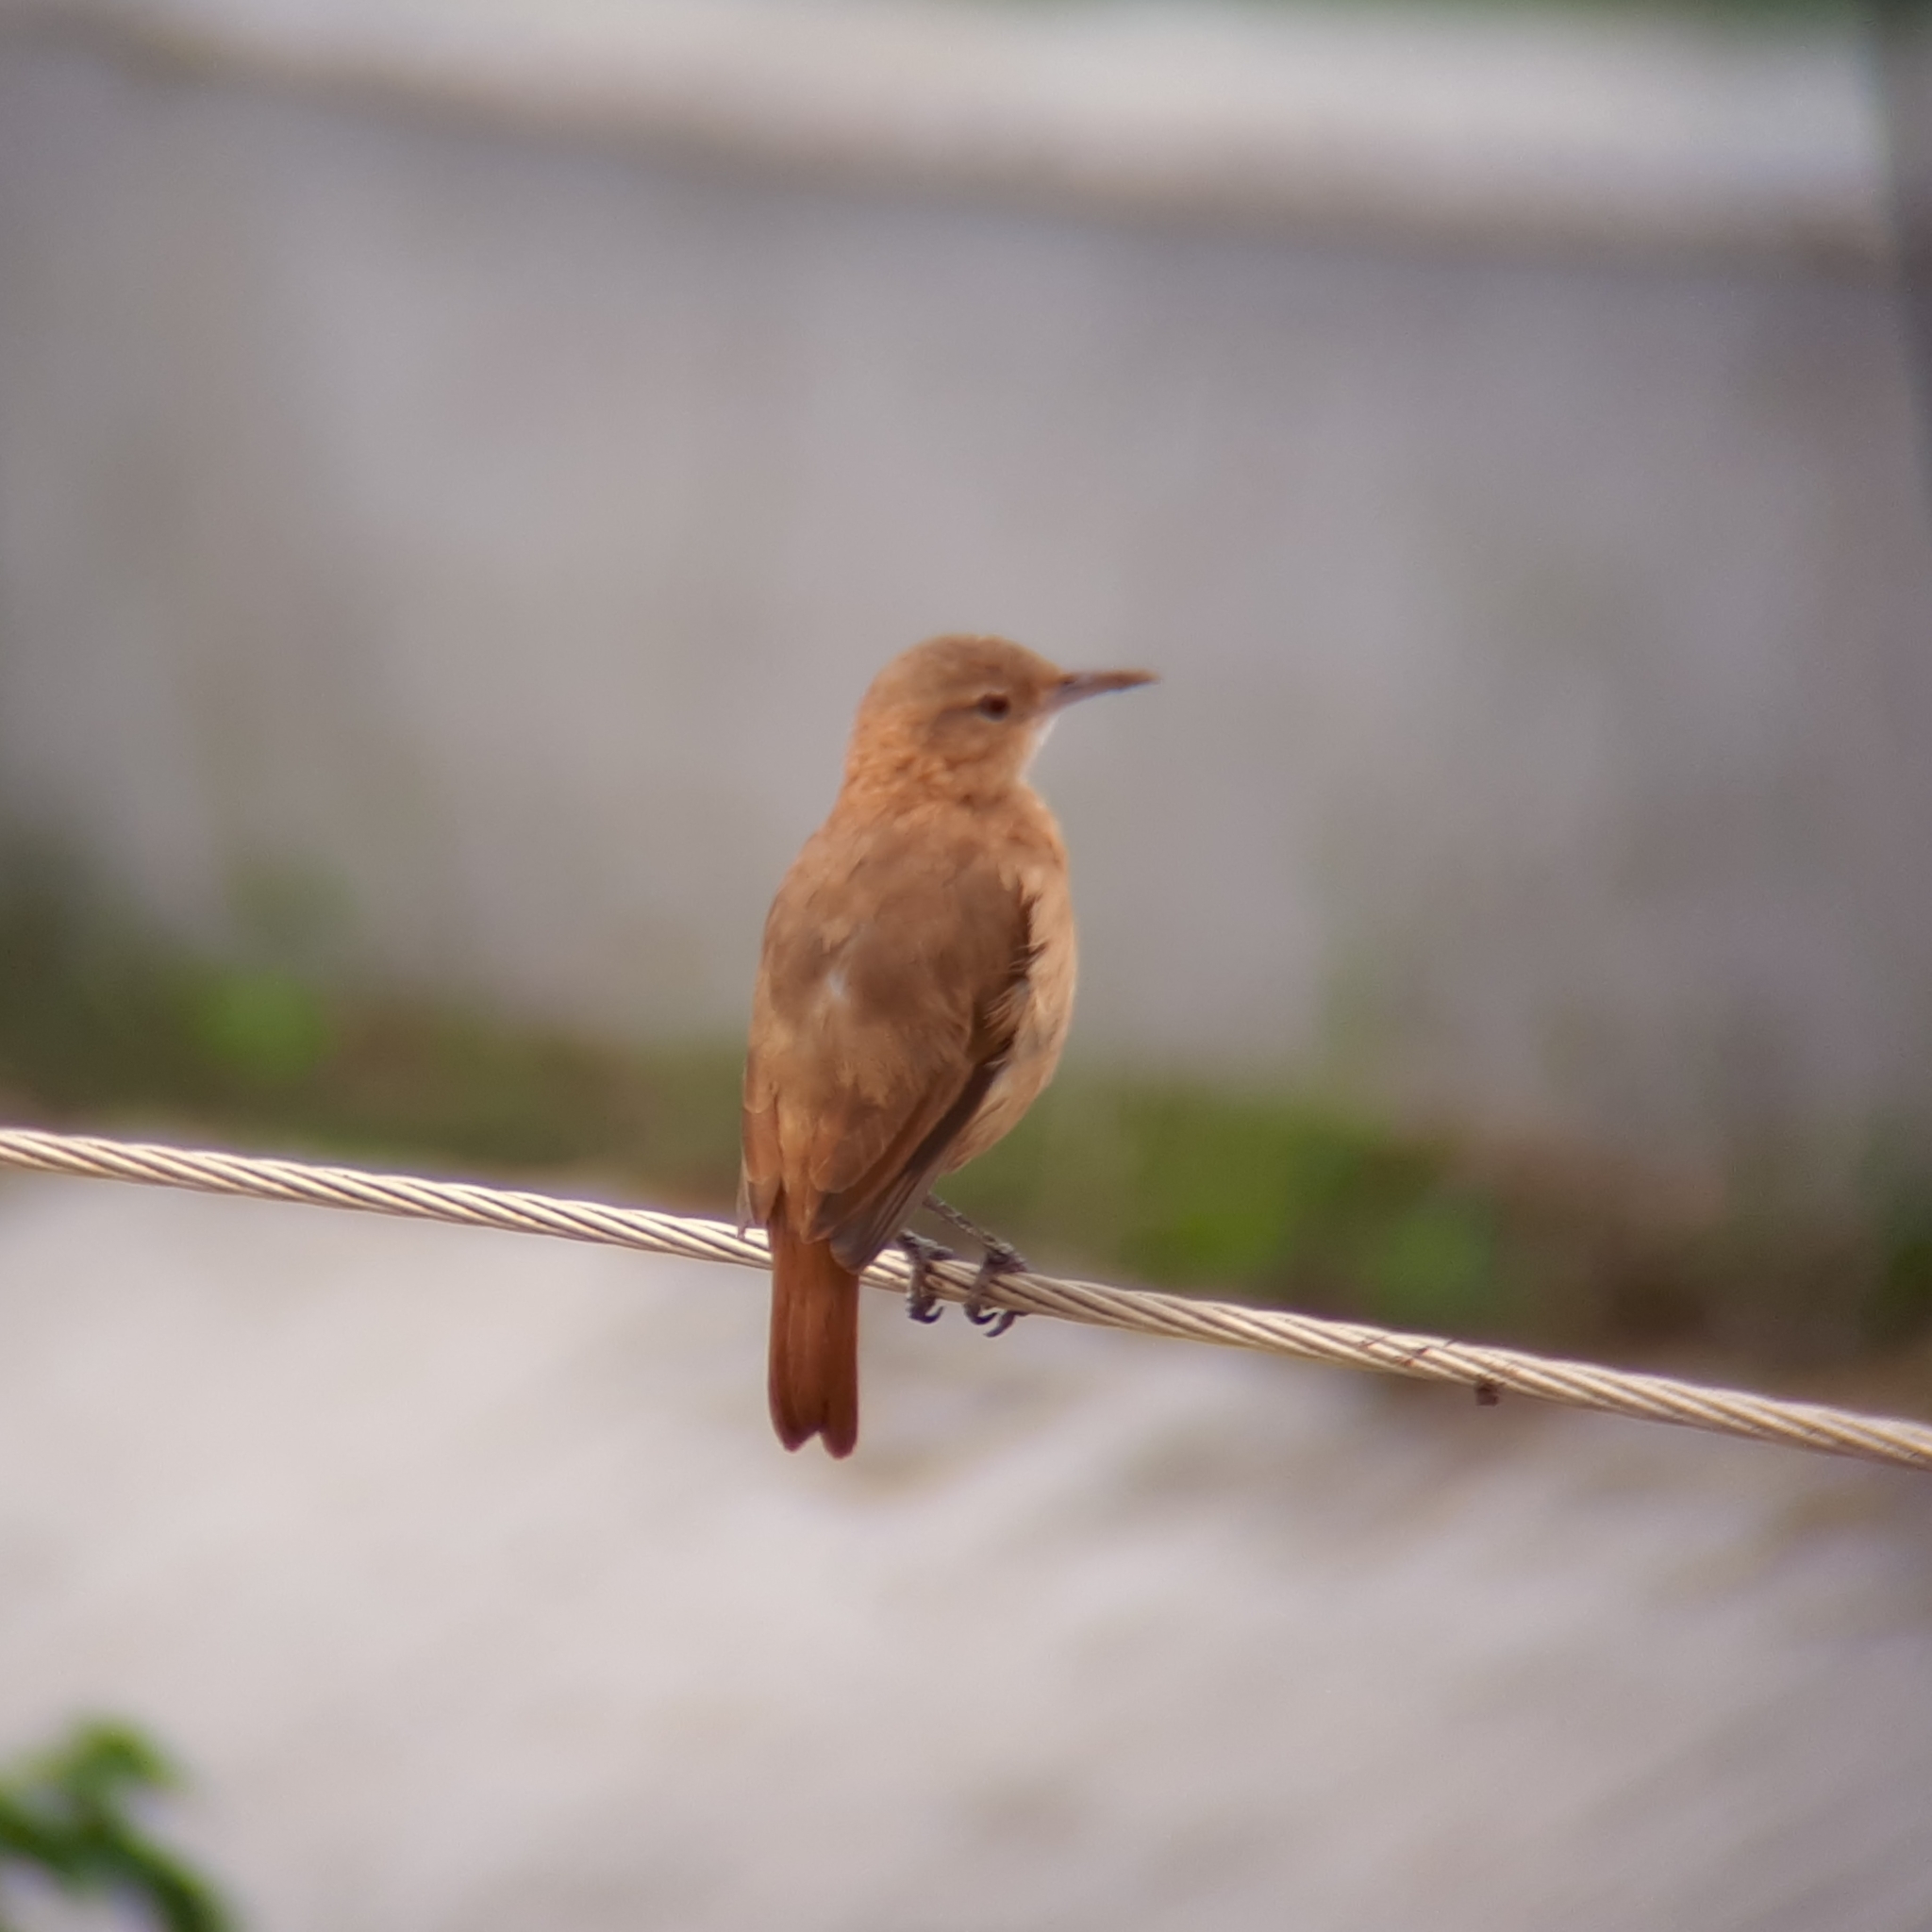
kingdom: Animalia
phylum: Chordata
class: Aves
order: Passeriformes
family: Furnariidae
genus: Furnarius
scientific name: Furnarius rufus
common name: Rufous hornero
